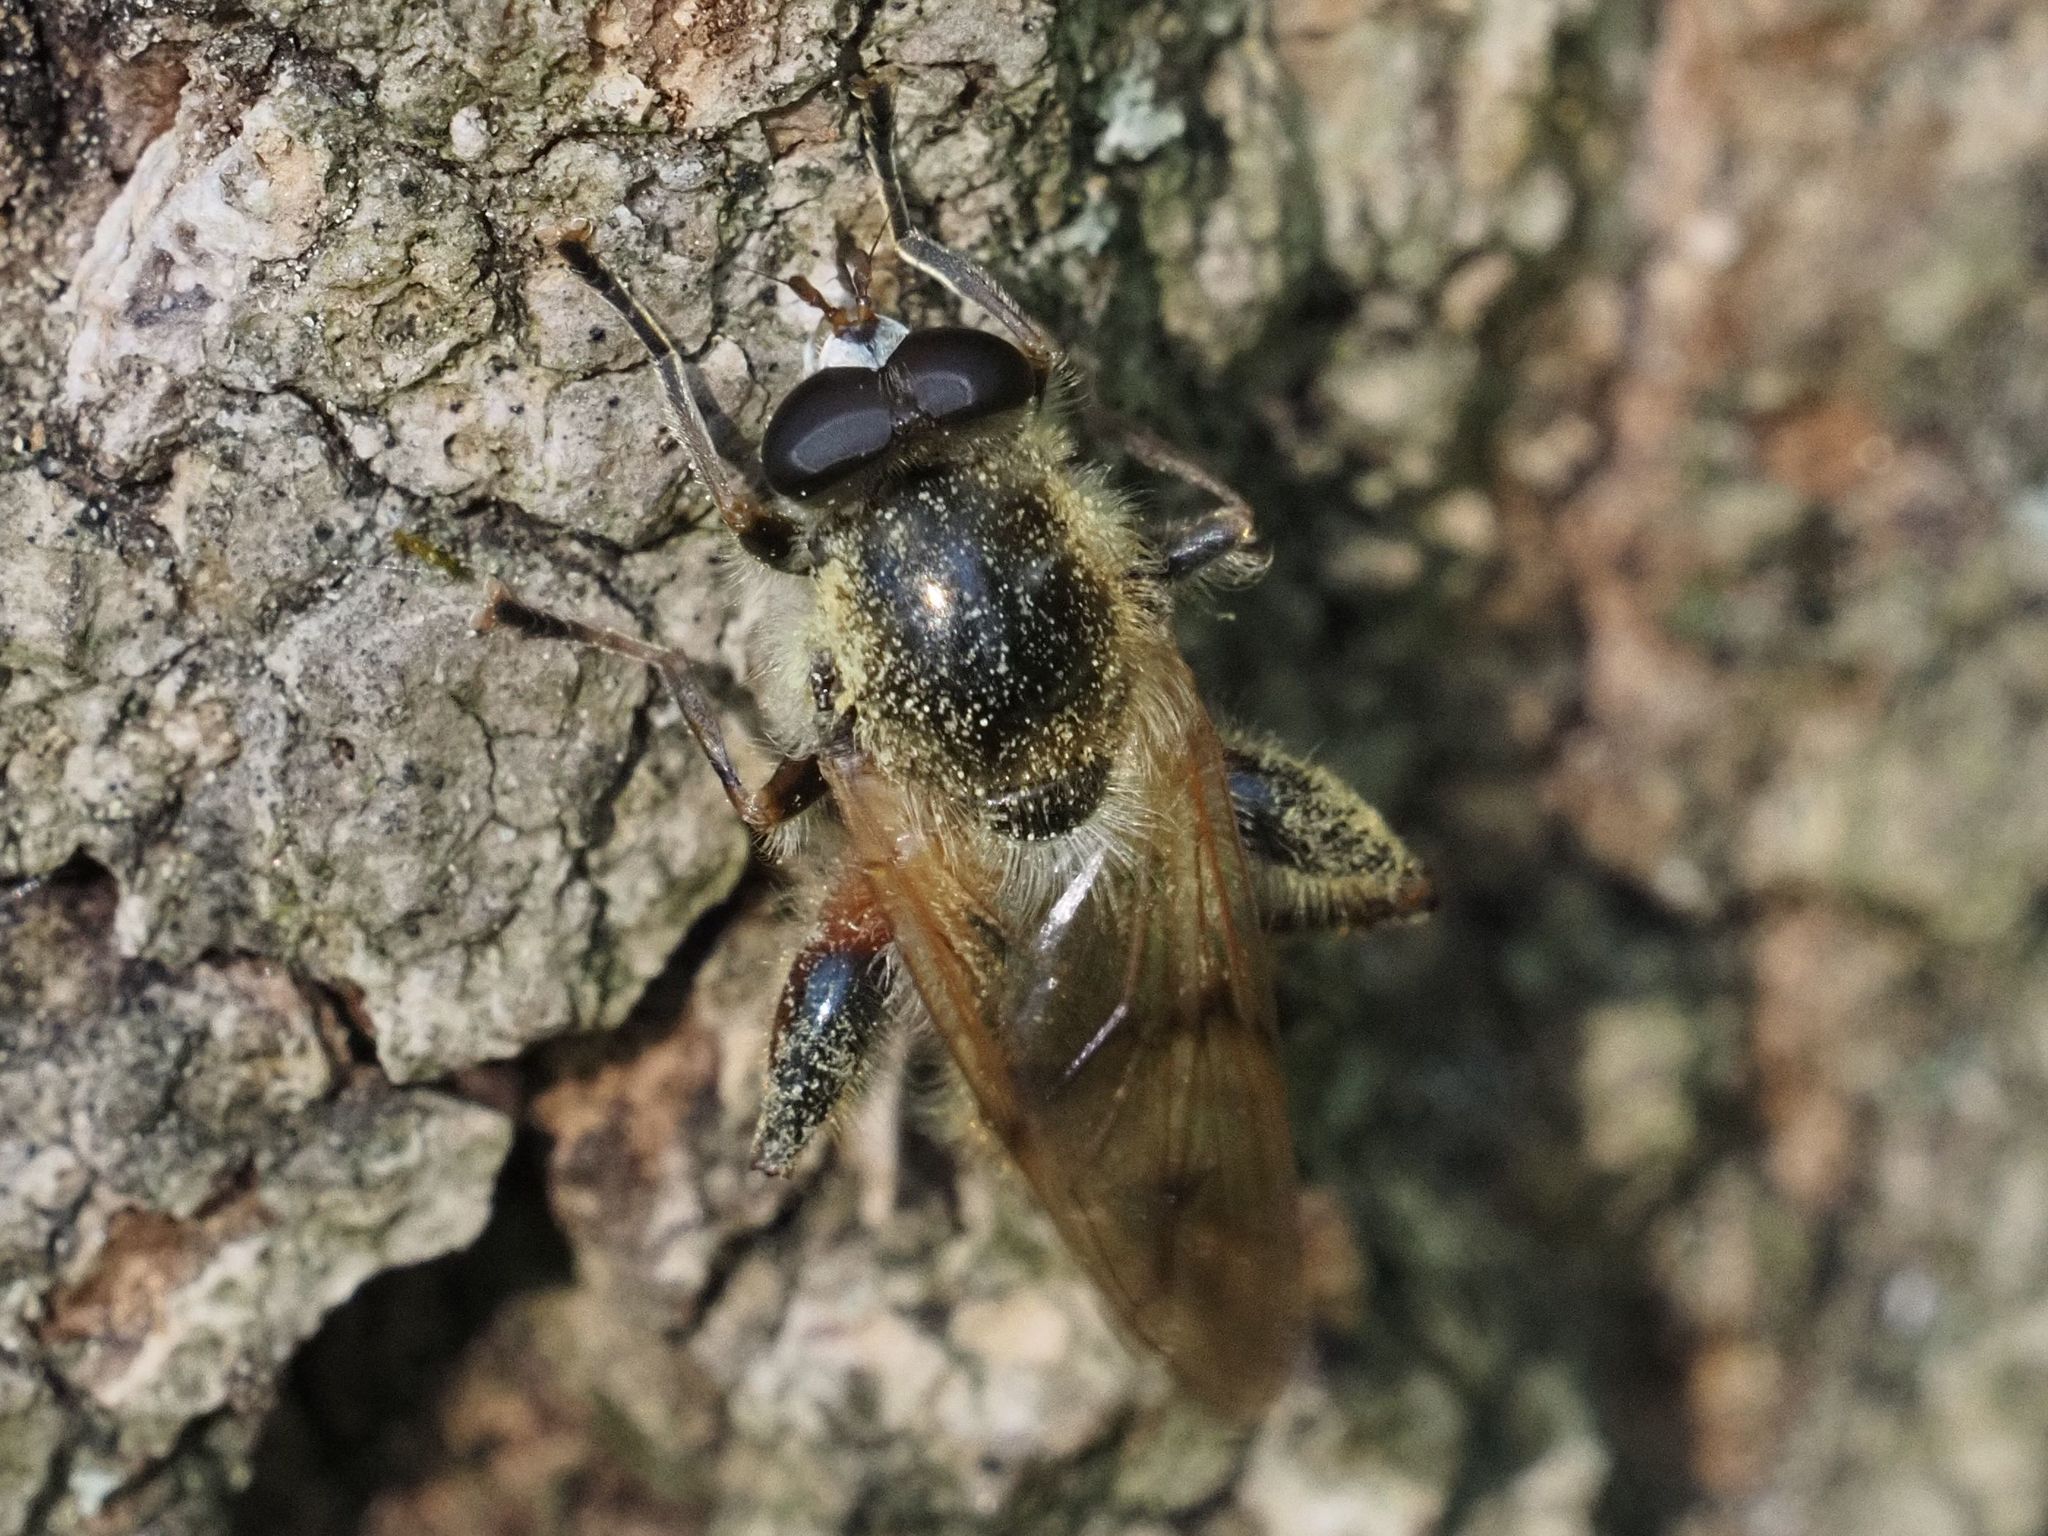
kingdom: Animalia
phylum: Arthropoda
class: Insecta
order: Diptera
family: Syrphidae
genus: Brachypalpus
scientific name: Brachypalpus valgus
